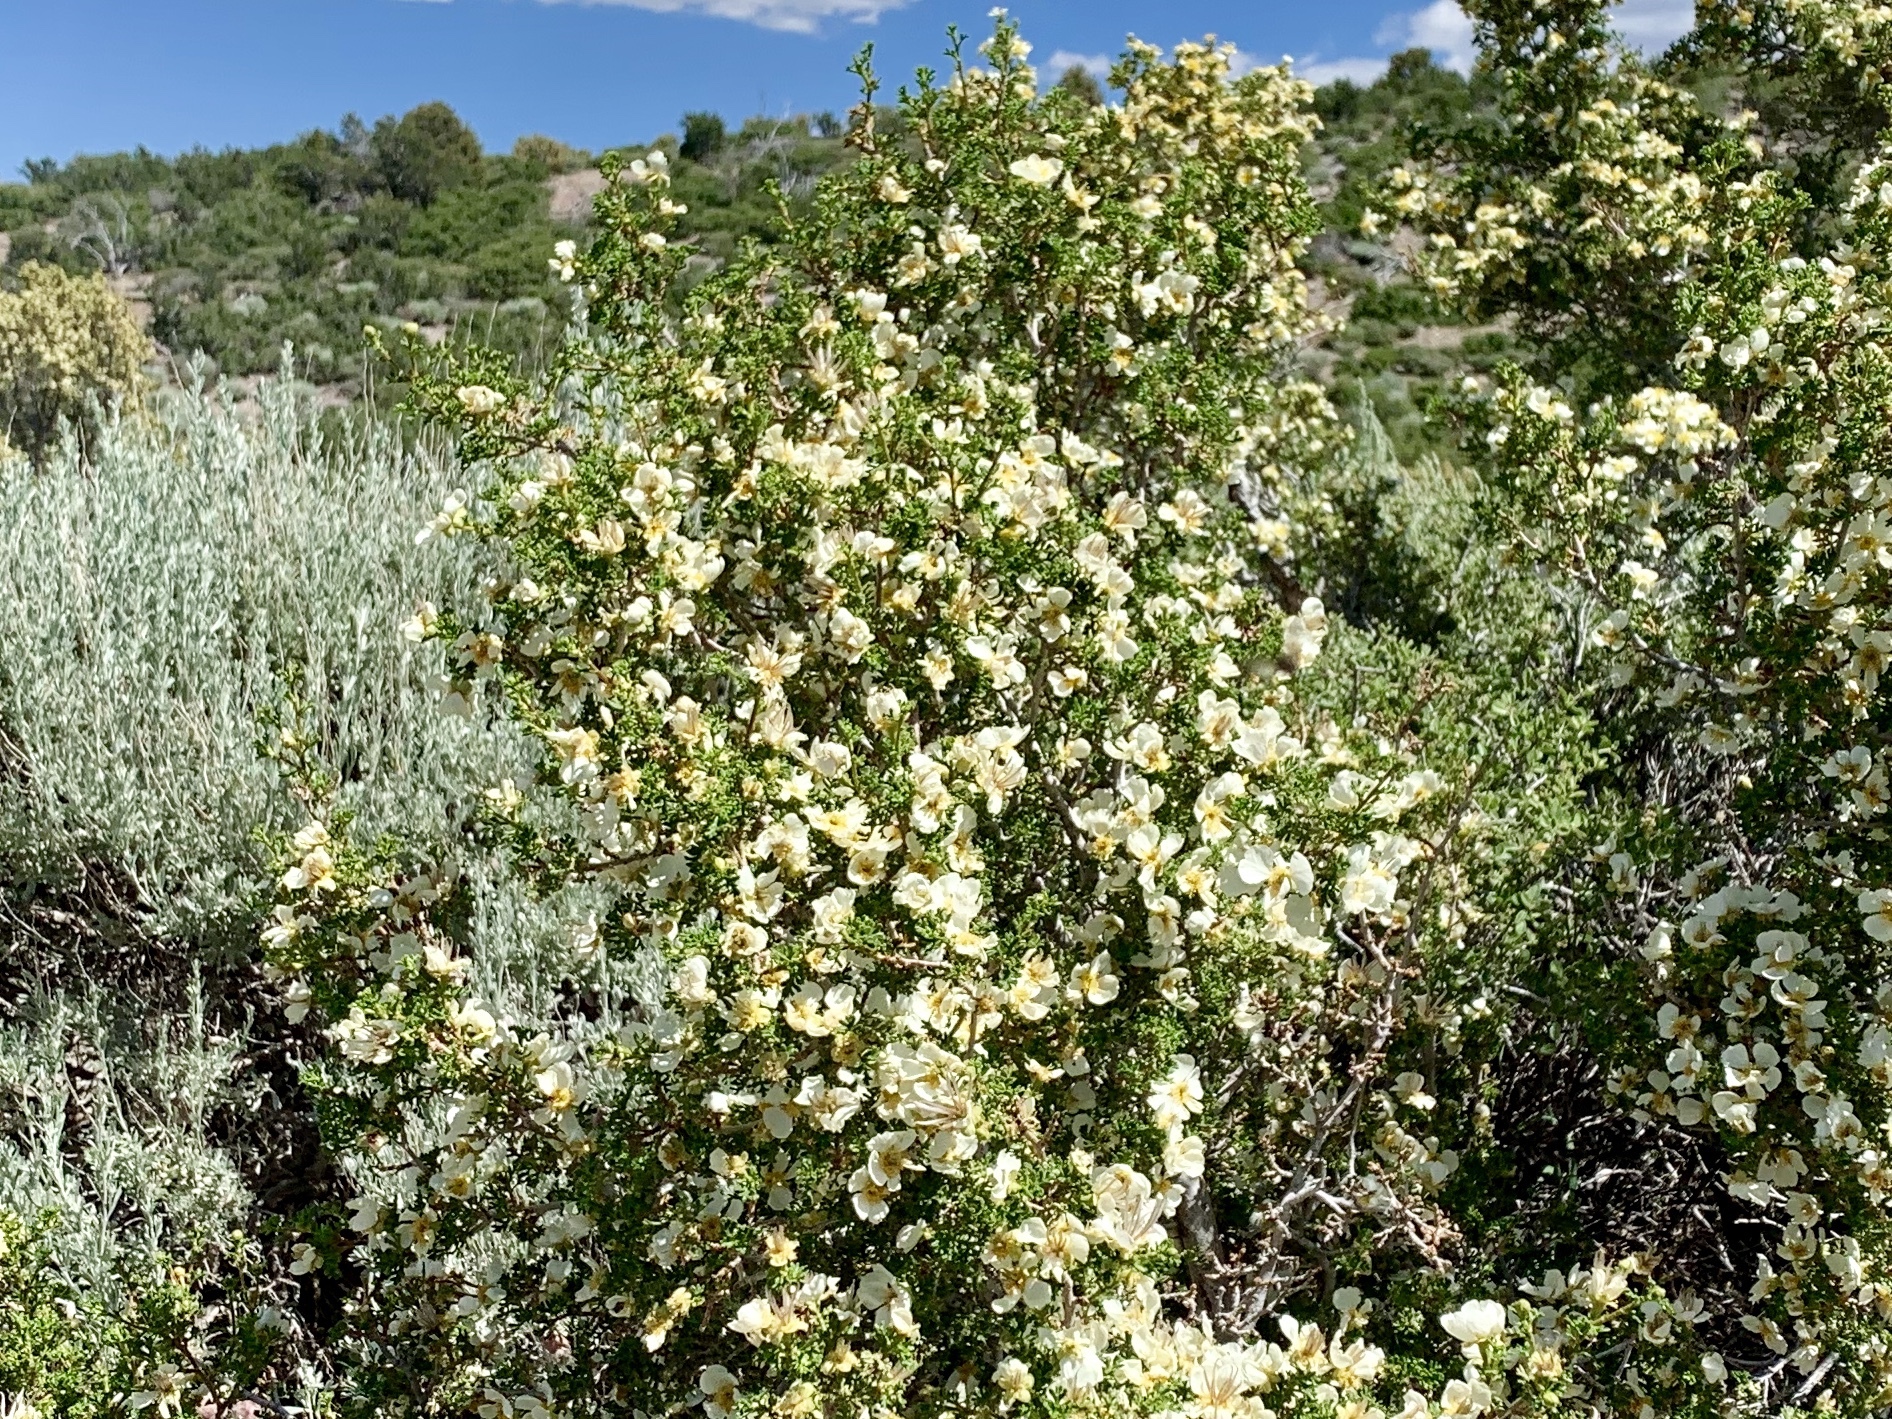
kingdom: Plantae
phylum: Tracheophyta
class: Magnoliopsida
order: Rosales
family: Rosaceae
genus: Purshia
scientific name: Purshia stansburiana
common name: Stansbury's cliffrose
